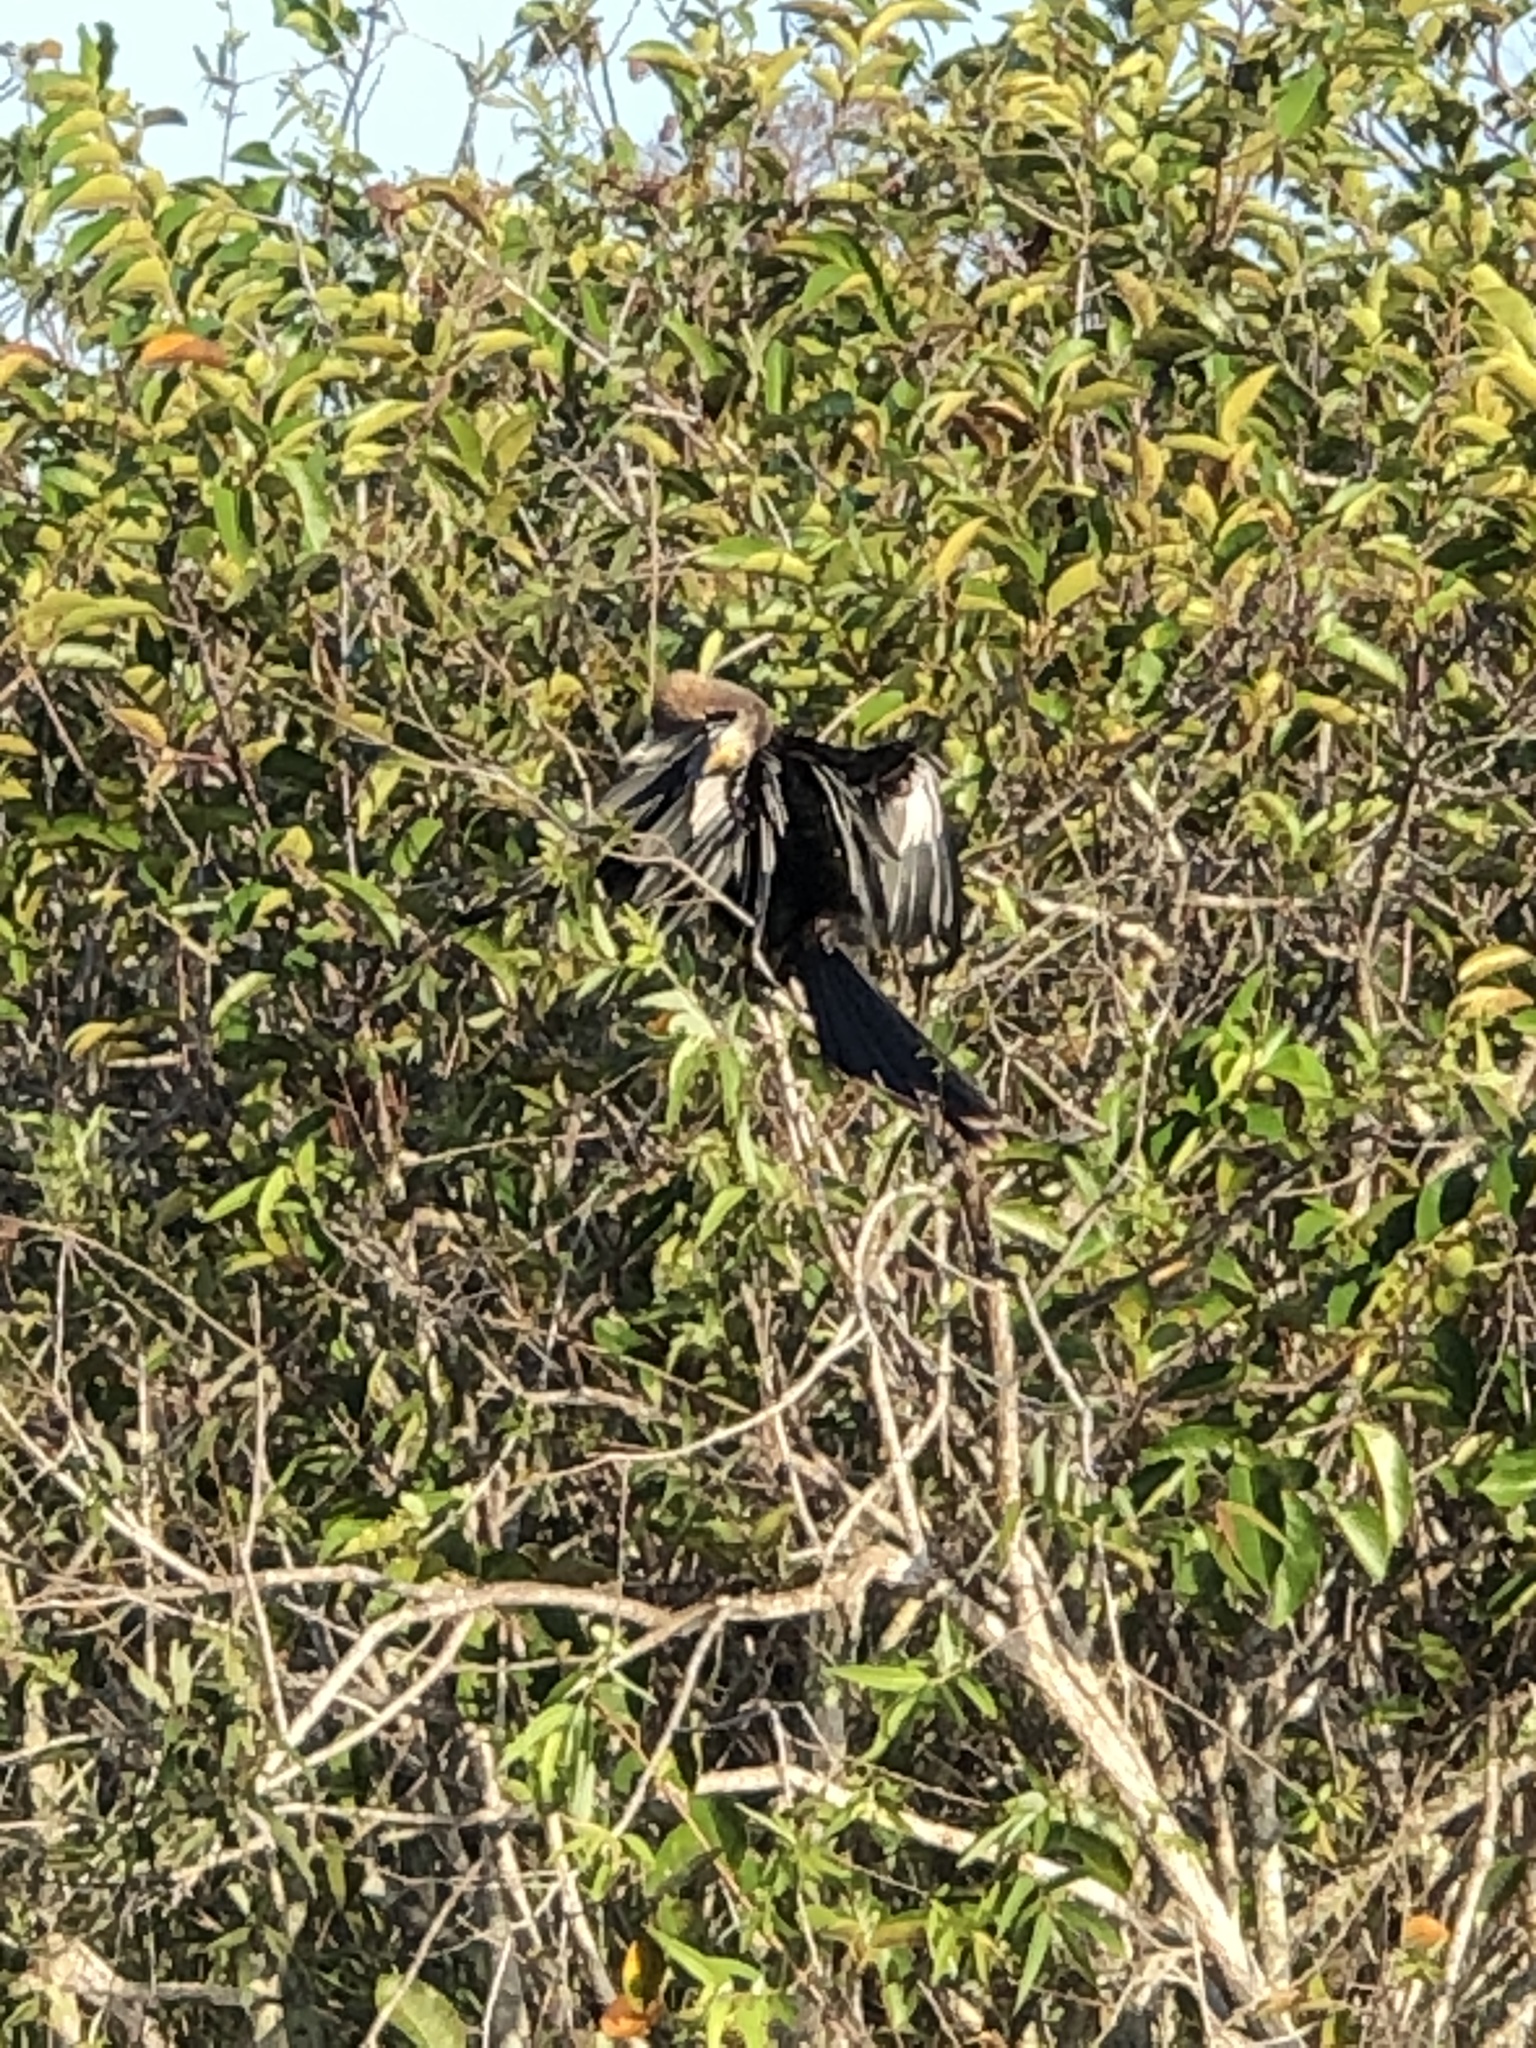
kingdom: Animalia
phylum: Chordata
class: Aves
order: Suliformes
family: Anhingidae
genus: Anhinga
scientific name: Anhinga anhinga
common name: Anhinga
